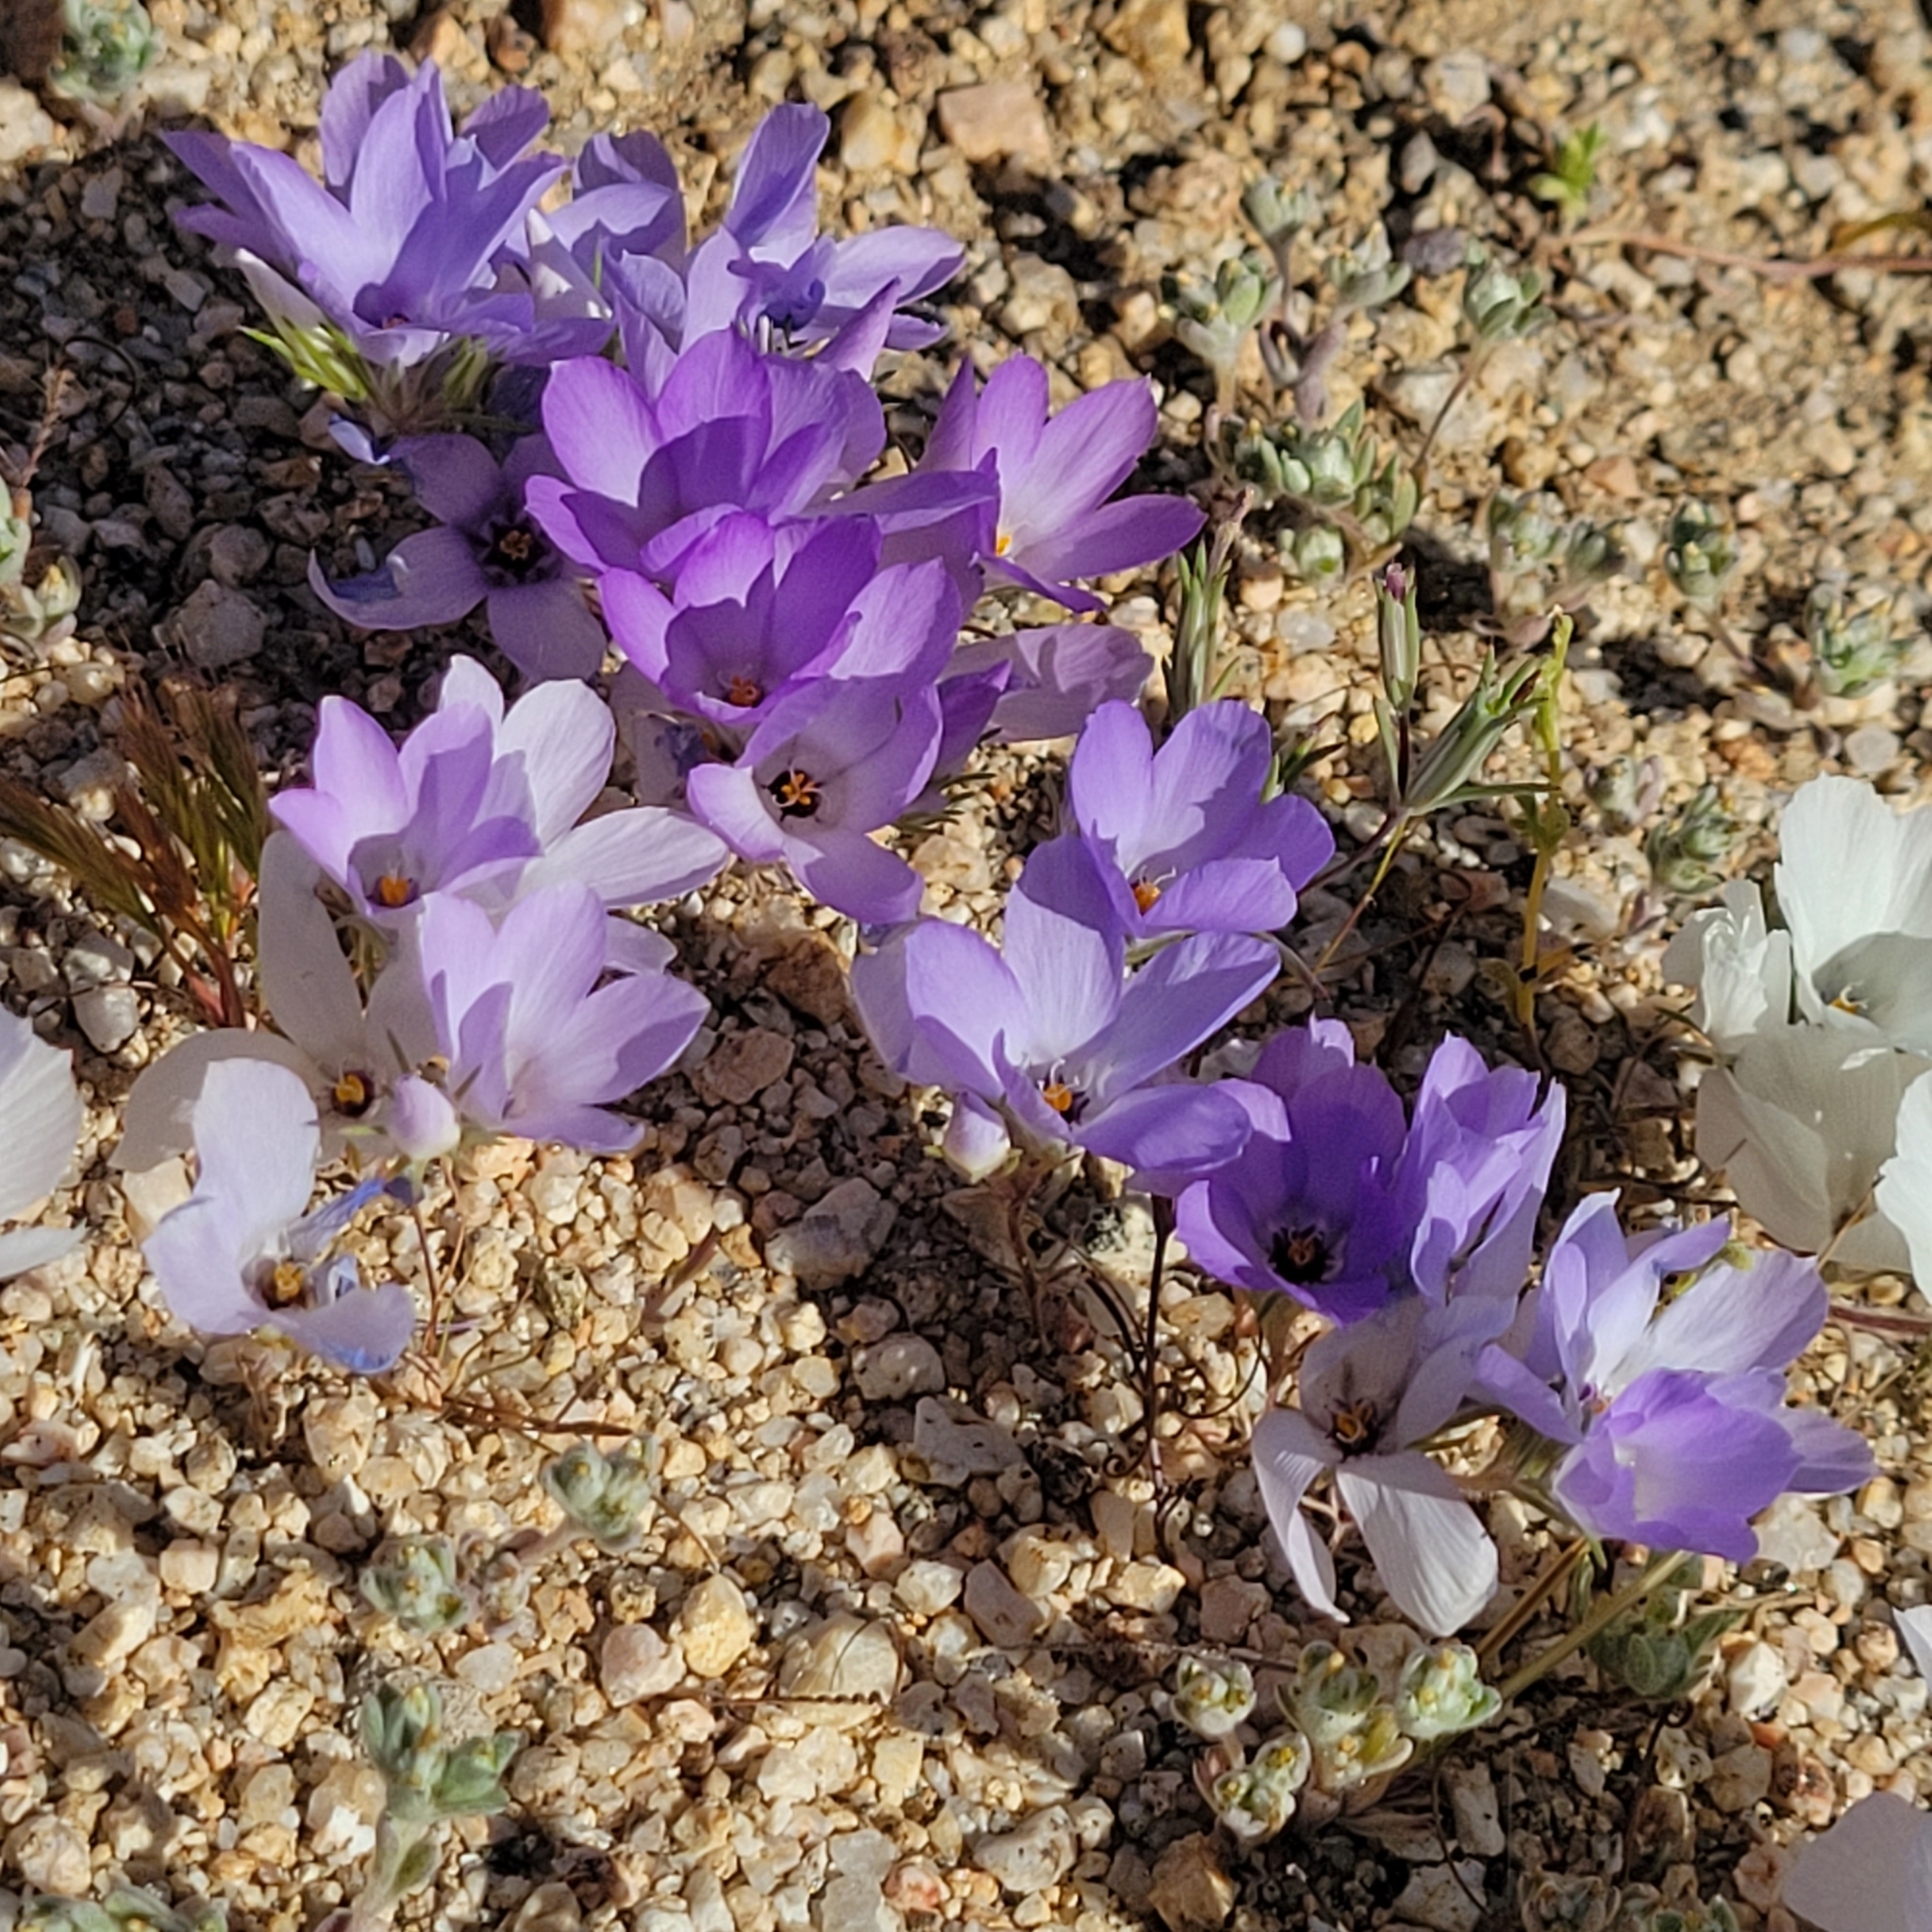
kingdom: Plantae
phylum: Tracheophyta
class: Magnoliopsida
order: Ericales
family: Polemoniaceae
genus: Linanthus
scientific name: Linanthus parryae
